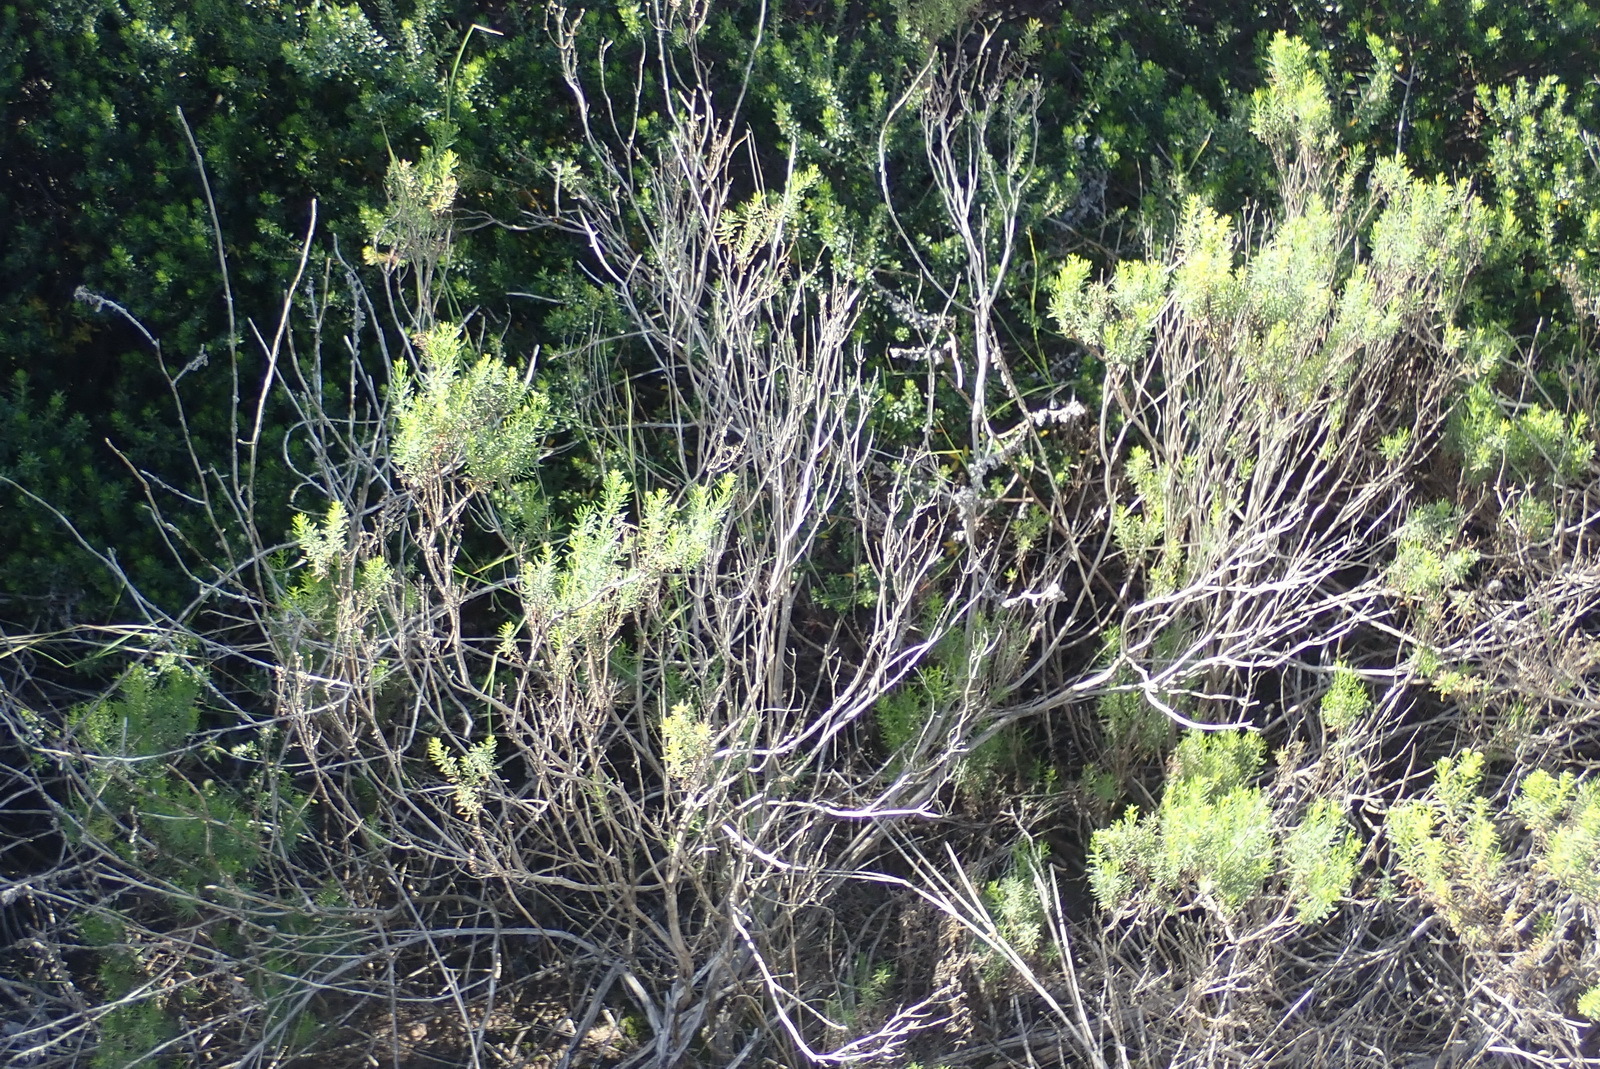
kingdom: Plantae
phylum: Tracheophyta
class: Magnoliopsida
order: Asterales
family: Asteraceae
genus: Chrysocoma
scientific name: Chrysocoma ciliata
